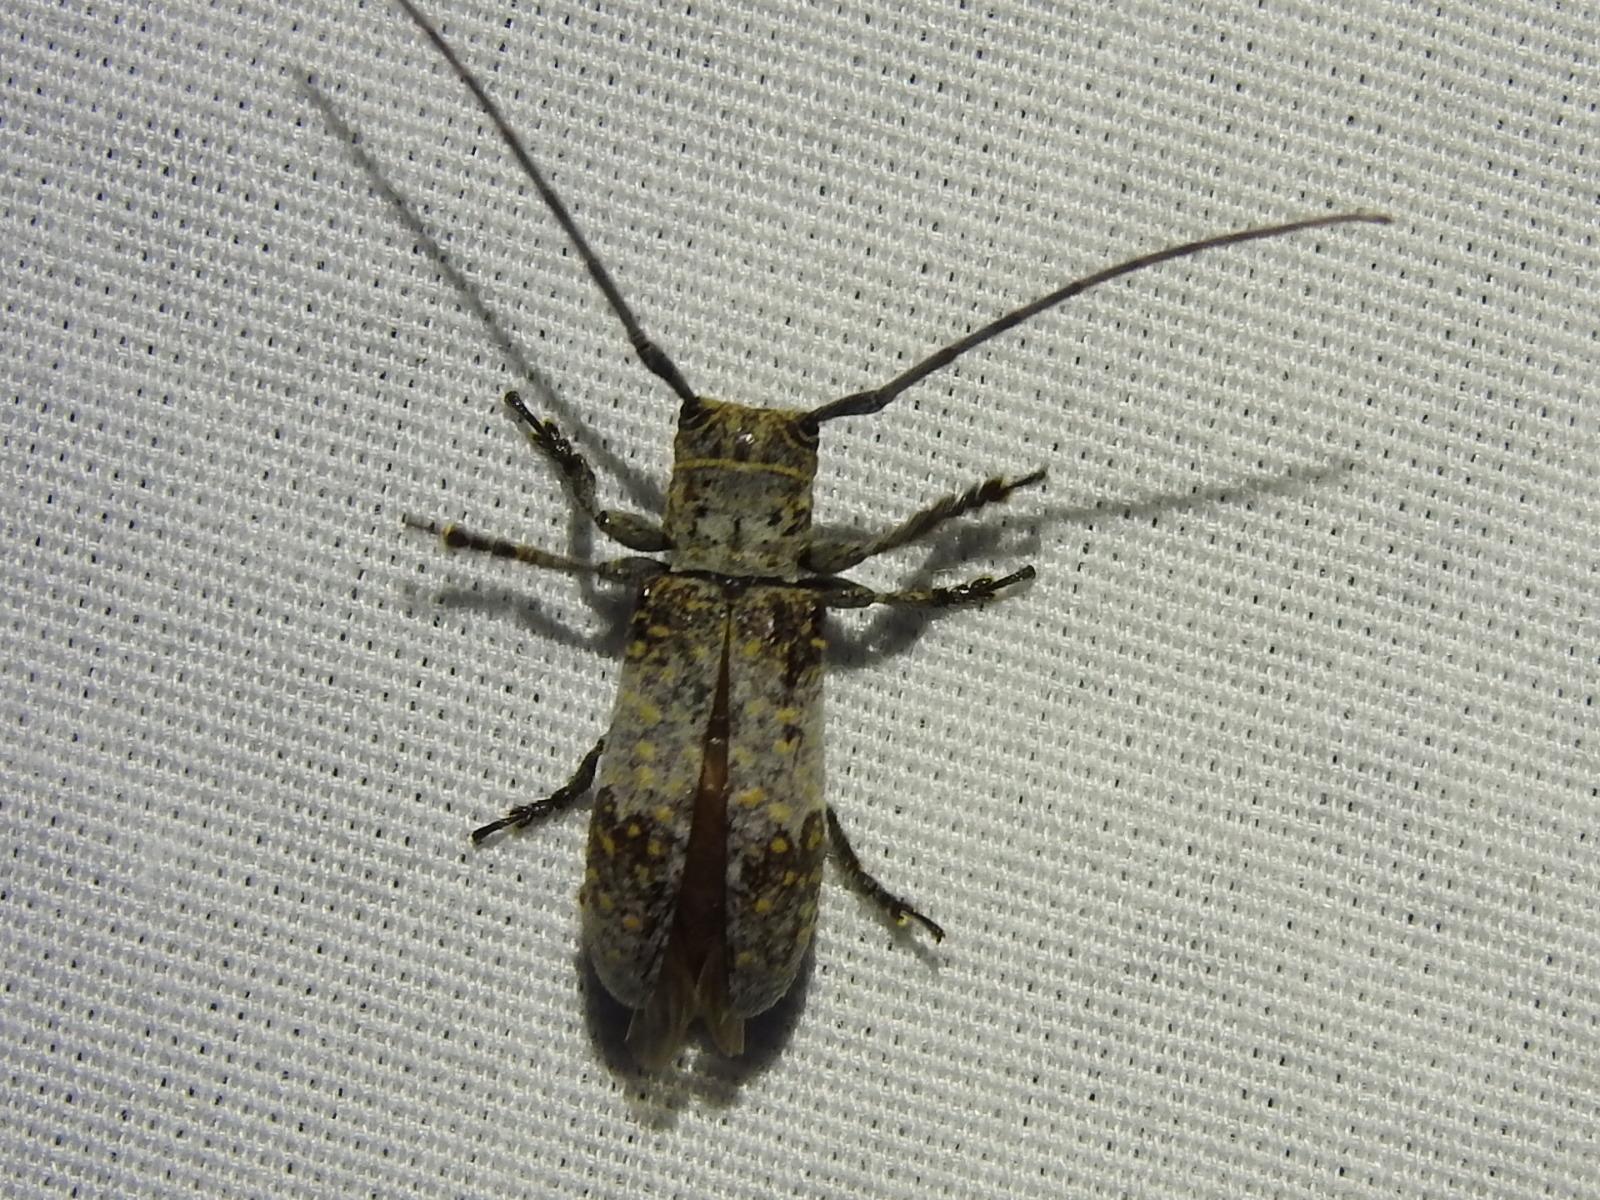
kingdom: Animalia
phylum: Arthropoda
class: Insecta
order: Coleoptera
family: Cerambycidae
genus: Oncideres
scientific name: Oncideres cingulata
